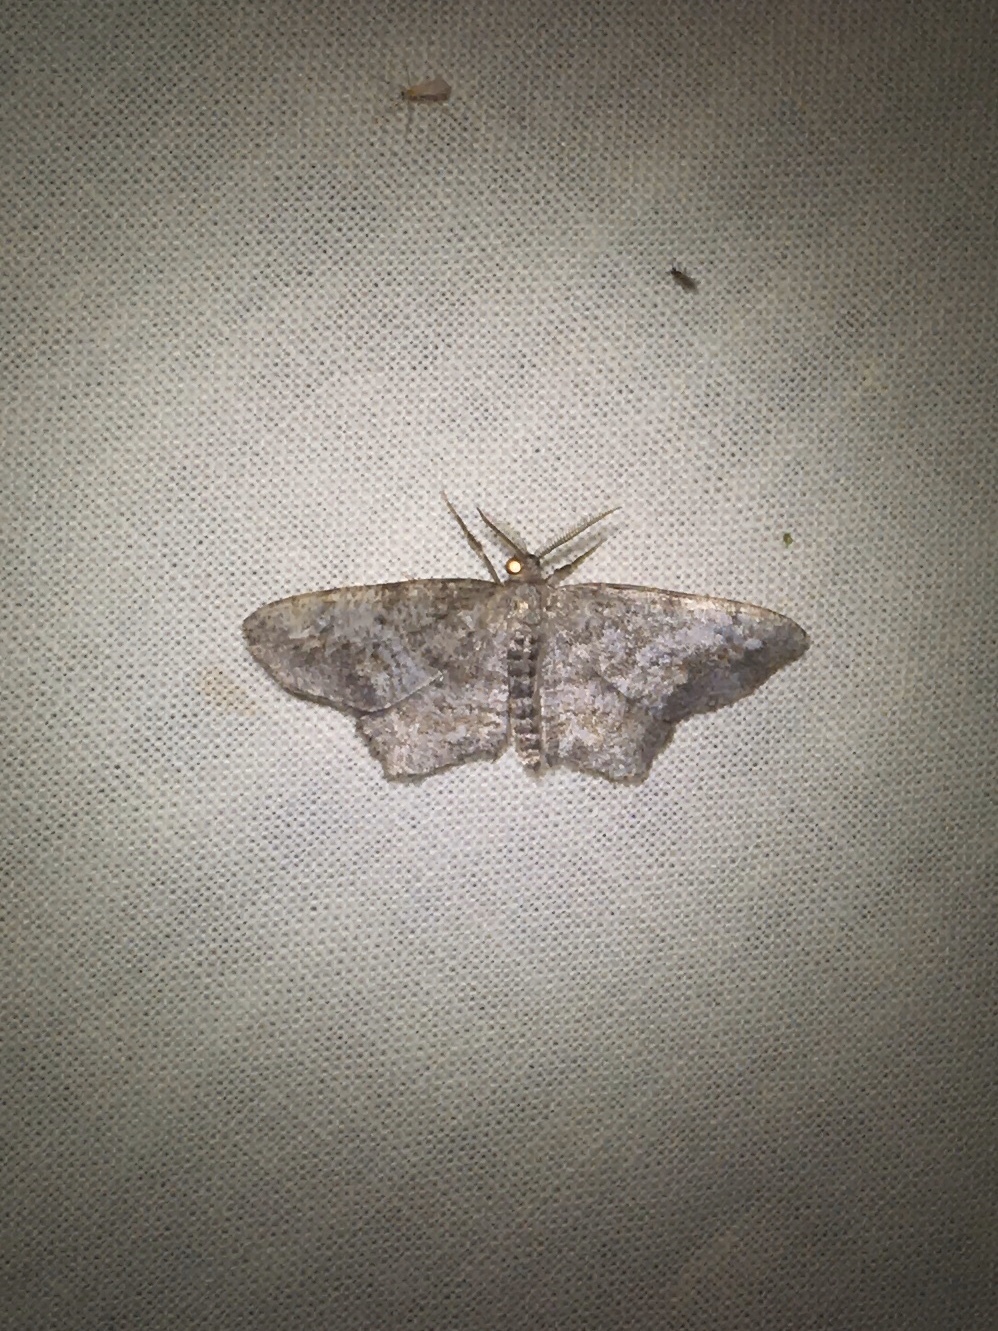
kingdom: Animalia
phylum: Arthropoda
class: Insecta
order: Lepidoptera
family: Geometridae
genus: Hypagyrtis
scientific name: Hypagyrtis piniata
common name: Pine measuringworm
